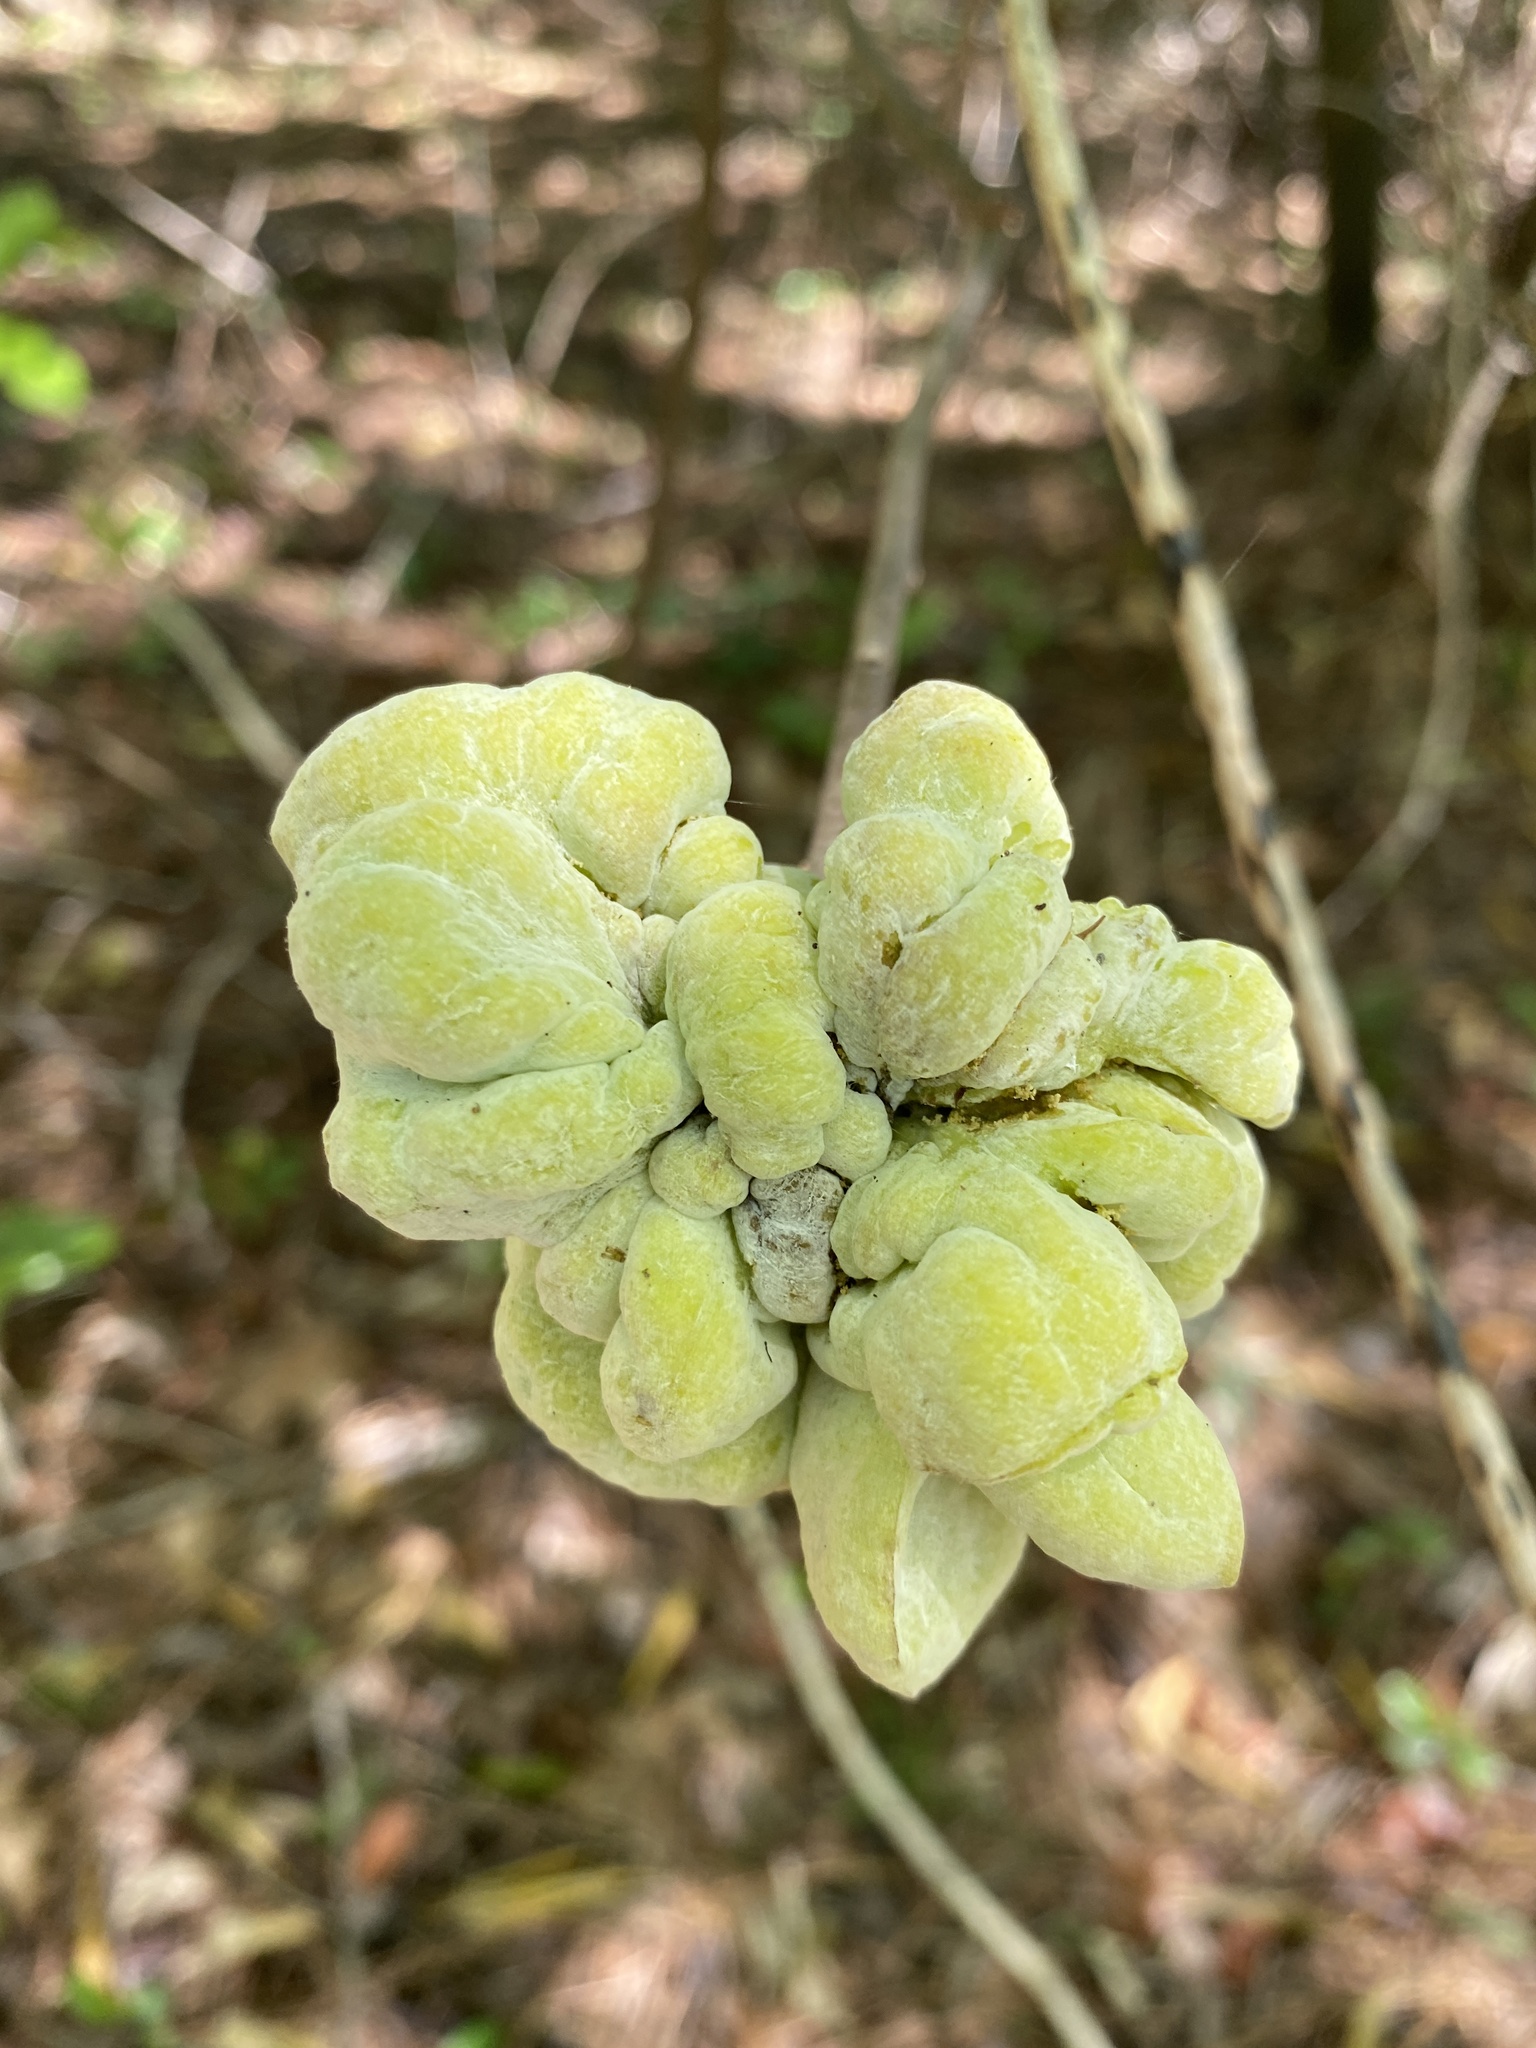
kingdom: Fungi
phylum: Basidiomycota
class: Exobasidiomycetes
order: Exobasidiales
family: Exobasidiaceae
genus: Exobasidium
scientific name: Exobasidium symploci
